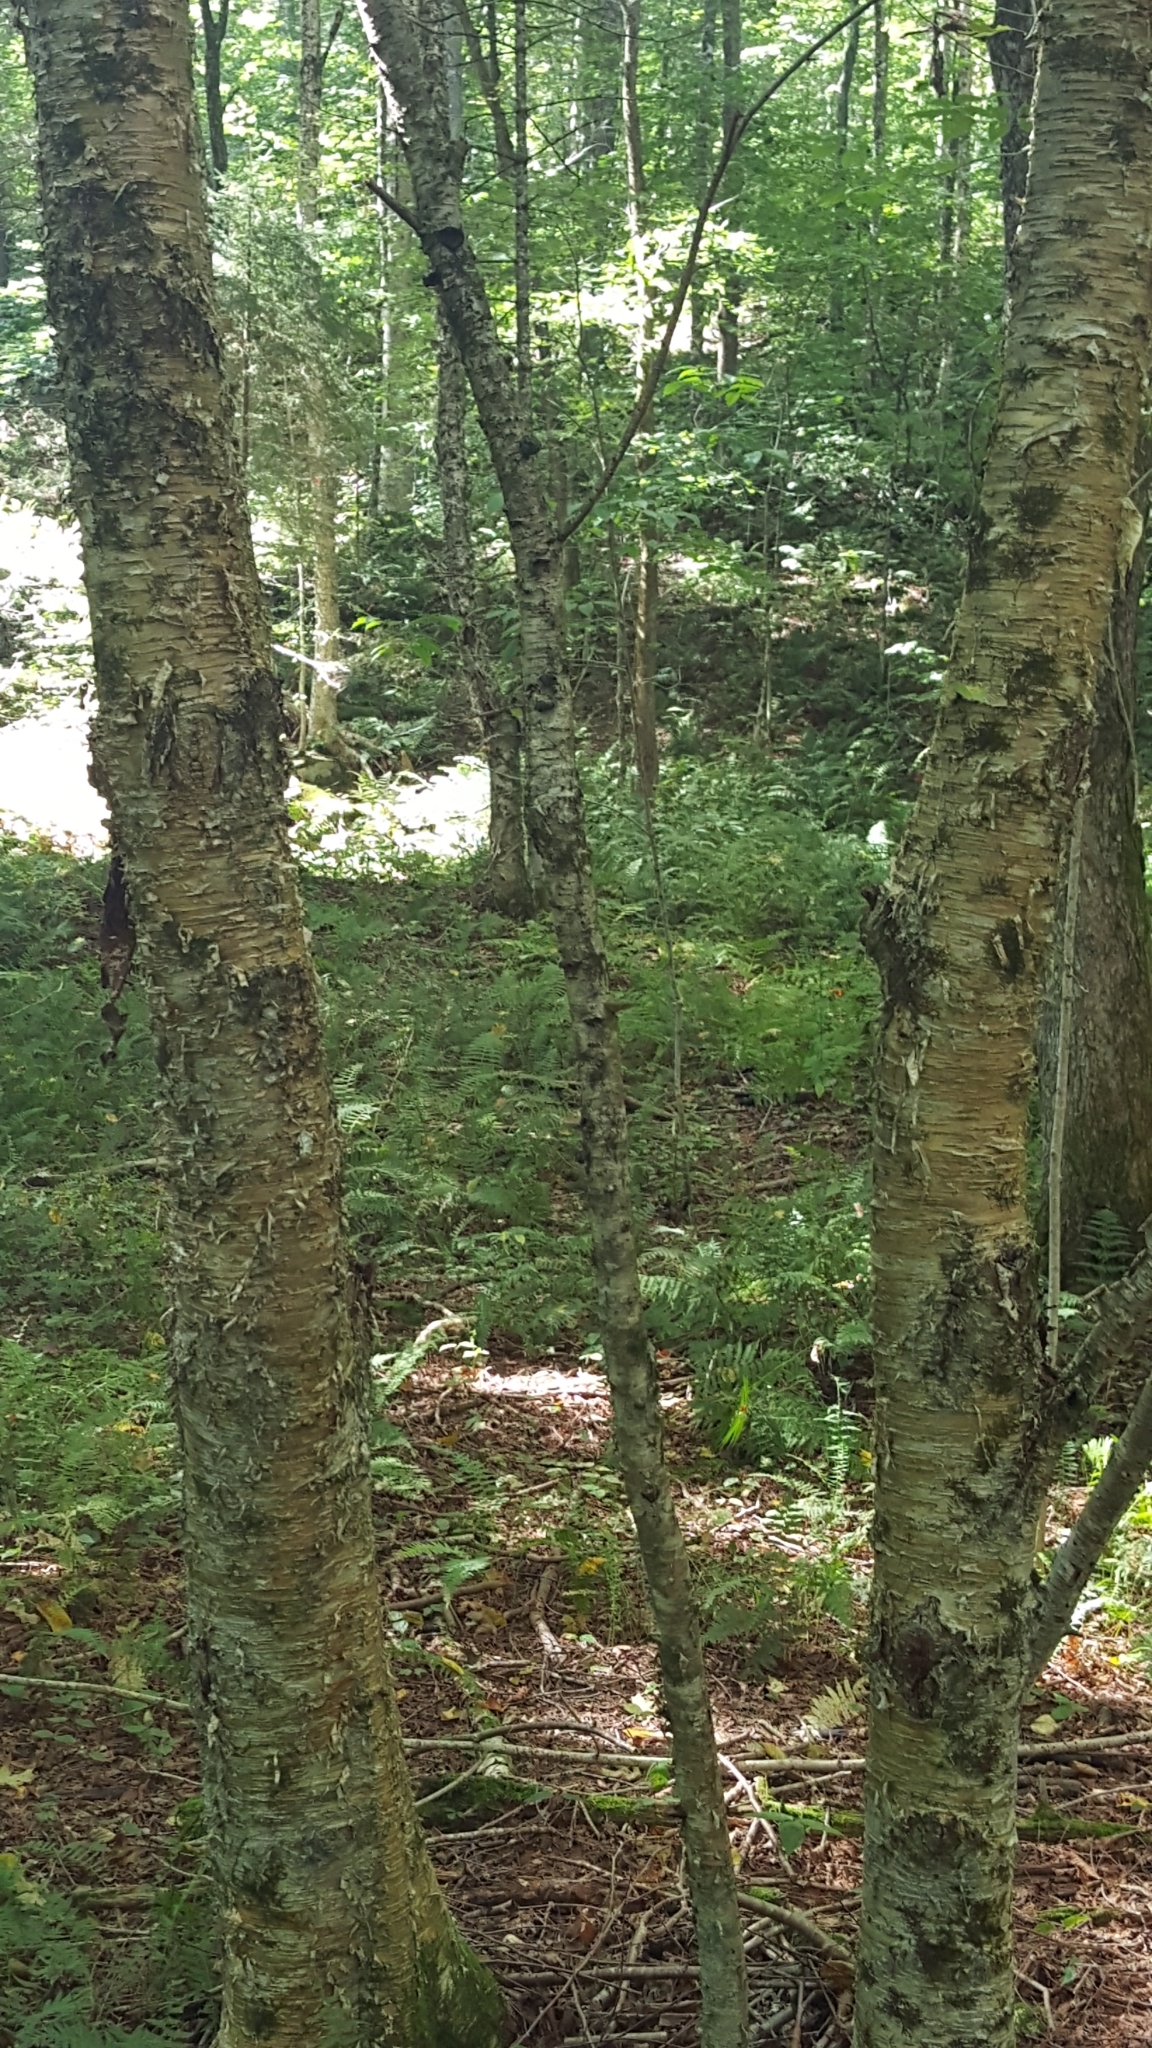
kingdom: Plantae
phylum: Tracheophyta
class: Magnoliopsida
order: Fagales
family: Betulaceae
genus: Betula
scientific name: Betula alleghaniensis
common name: Yellow birch
